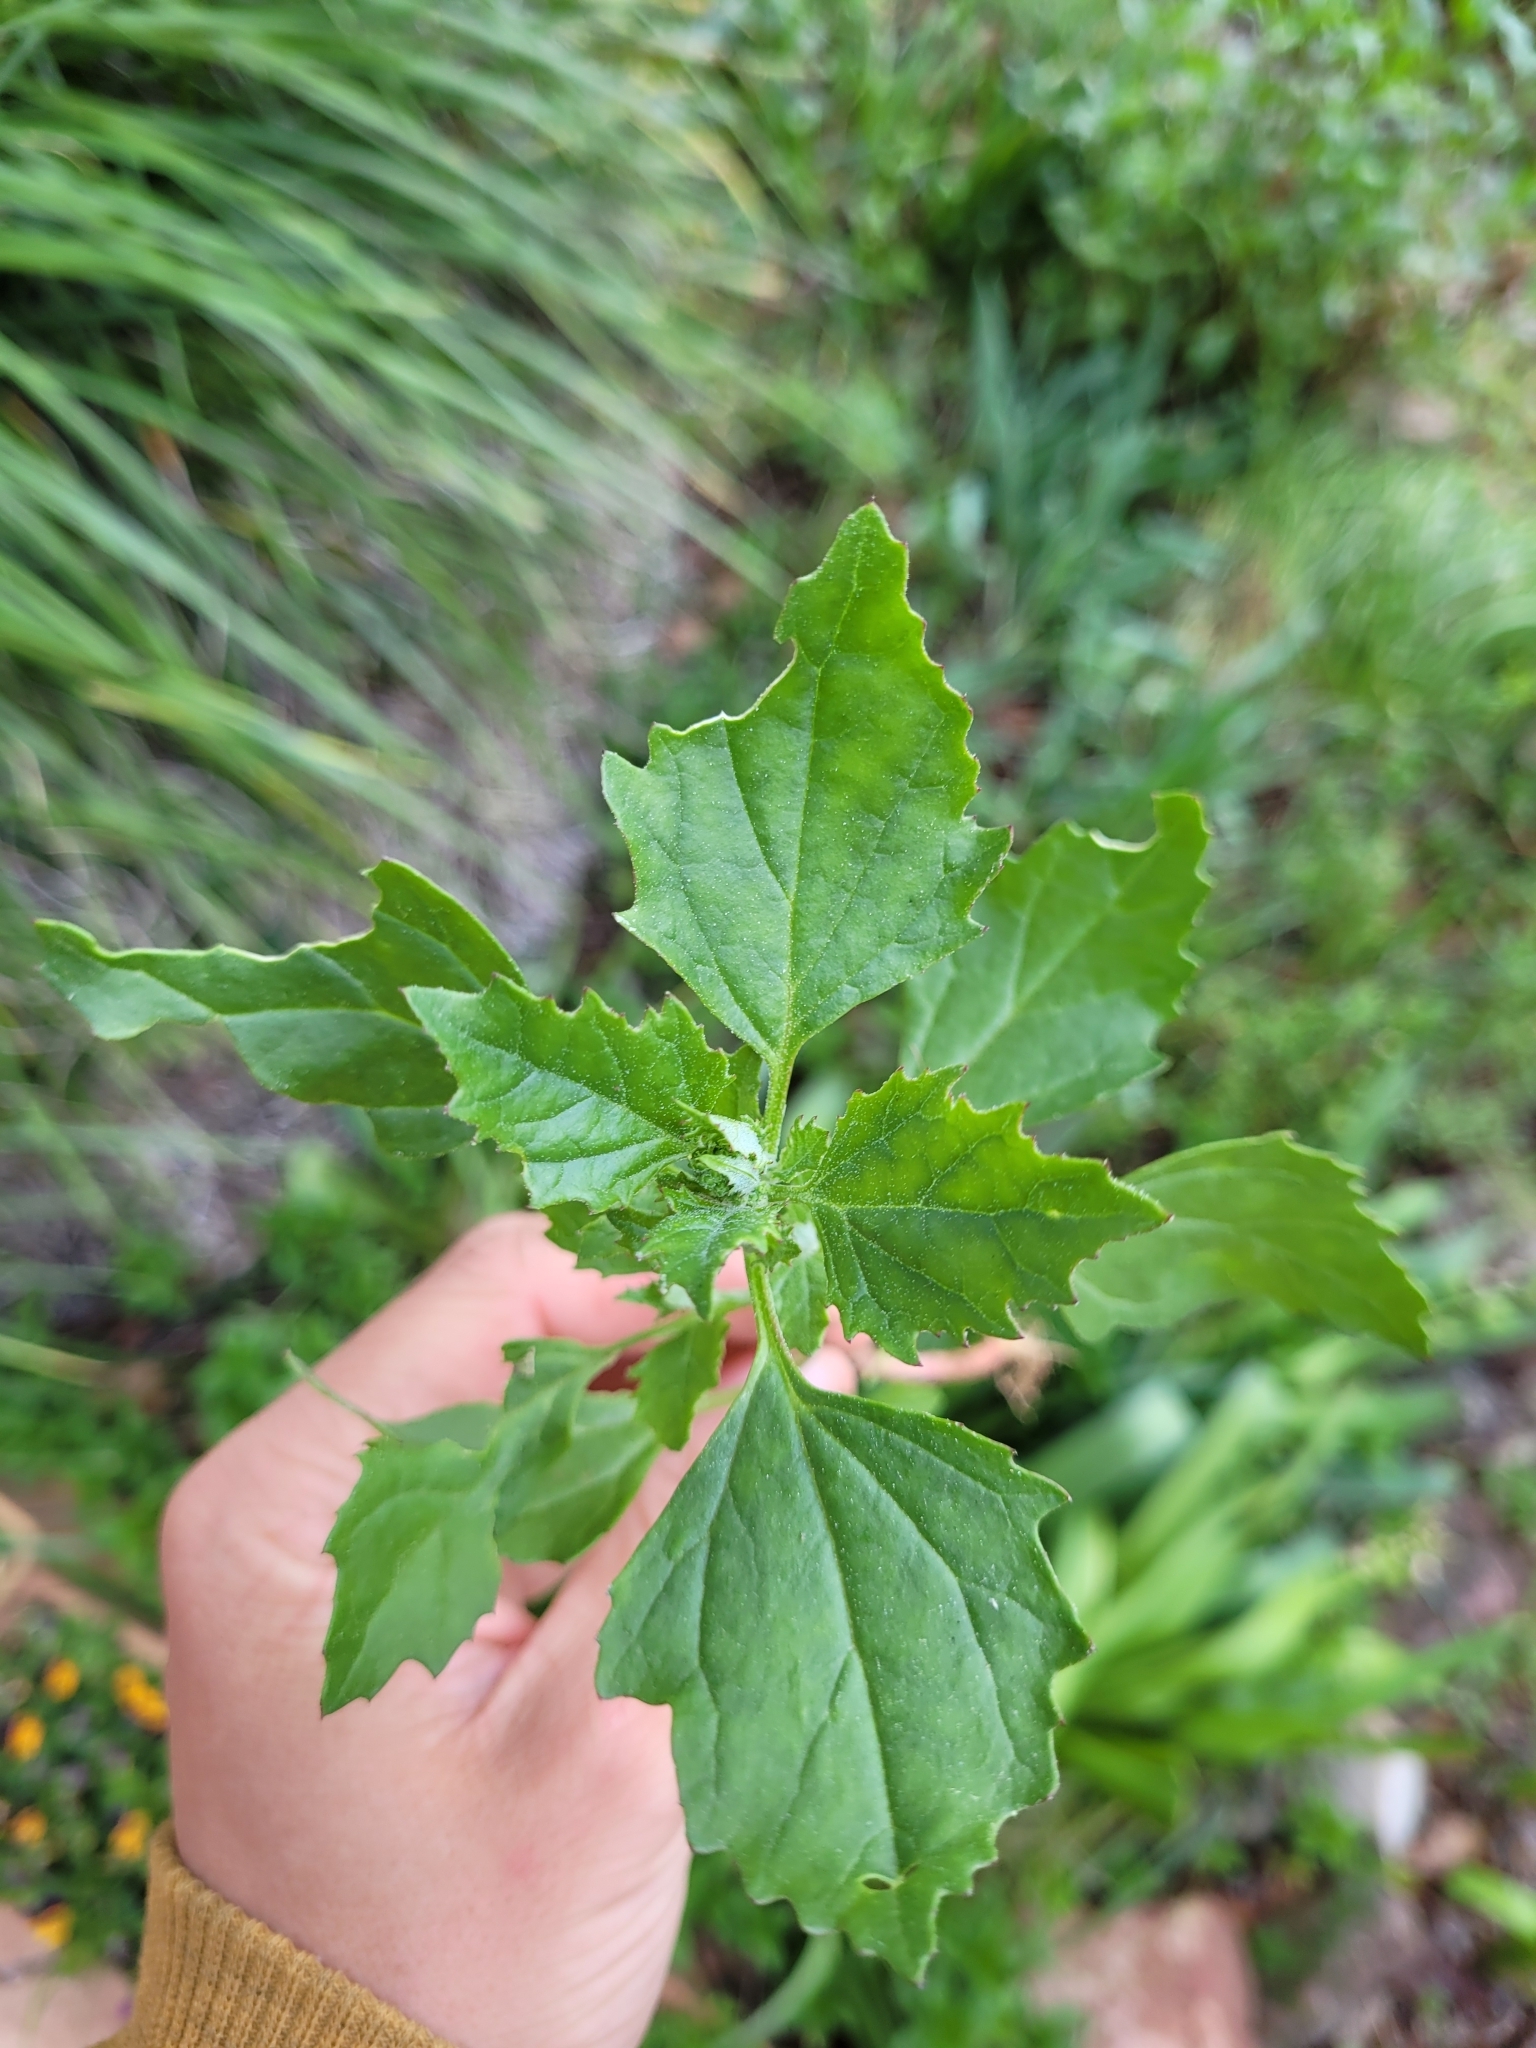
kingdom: Plantae
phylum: Tracheophyta
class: Magnoliopsida
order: Caryophyllales
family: Amaranthaceae
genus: Chenopodiastrum
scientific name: Chenopodiastrum murale
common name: Sowbane
